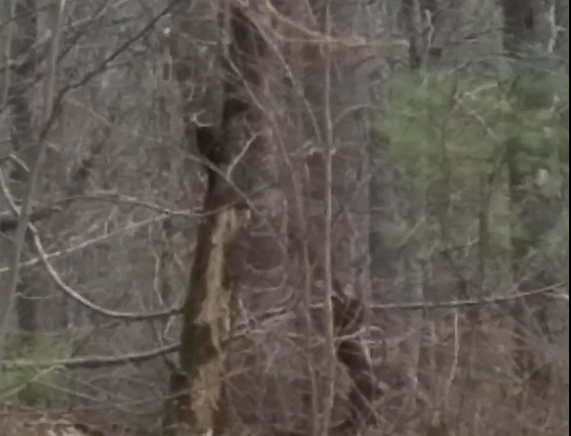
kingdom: Animalia
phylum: Chordata
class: Aves
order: Piciformes
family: Picidae
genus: Dryocopus
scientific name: Dryocopus pileatus
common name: Pileated woodpecker
